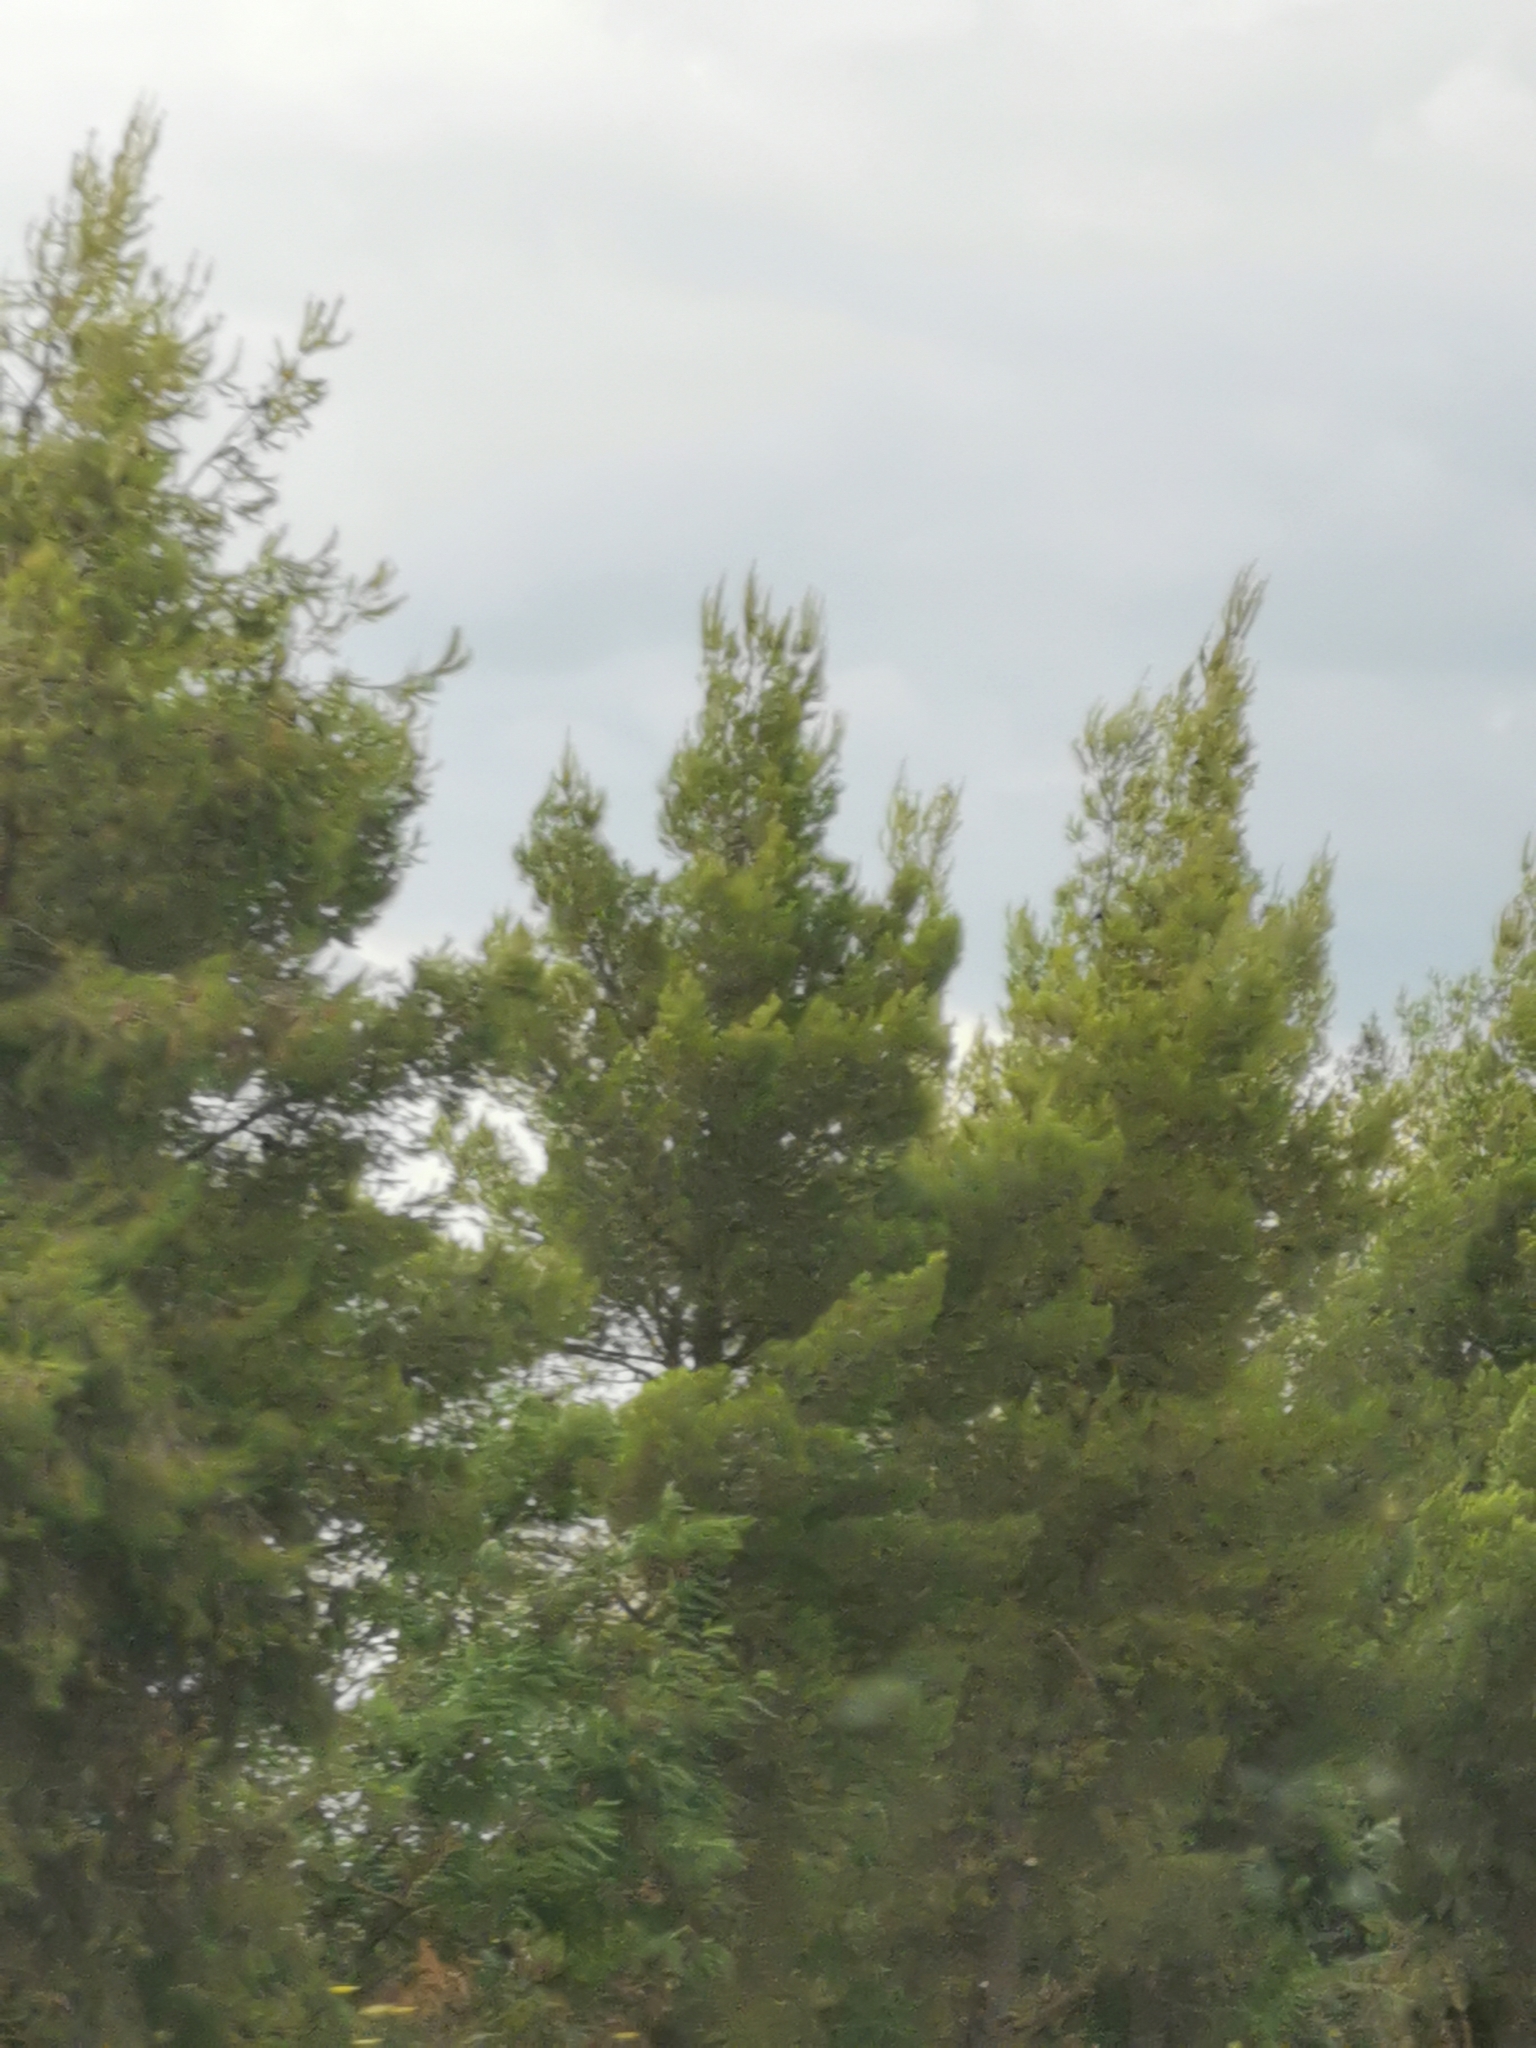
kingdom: Plantae
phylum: Tracheophyta
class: Pinopsida
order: Pinales
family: Pinaceae
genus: Pinus
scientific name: Pinus halepensis
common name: Aleppo pine
